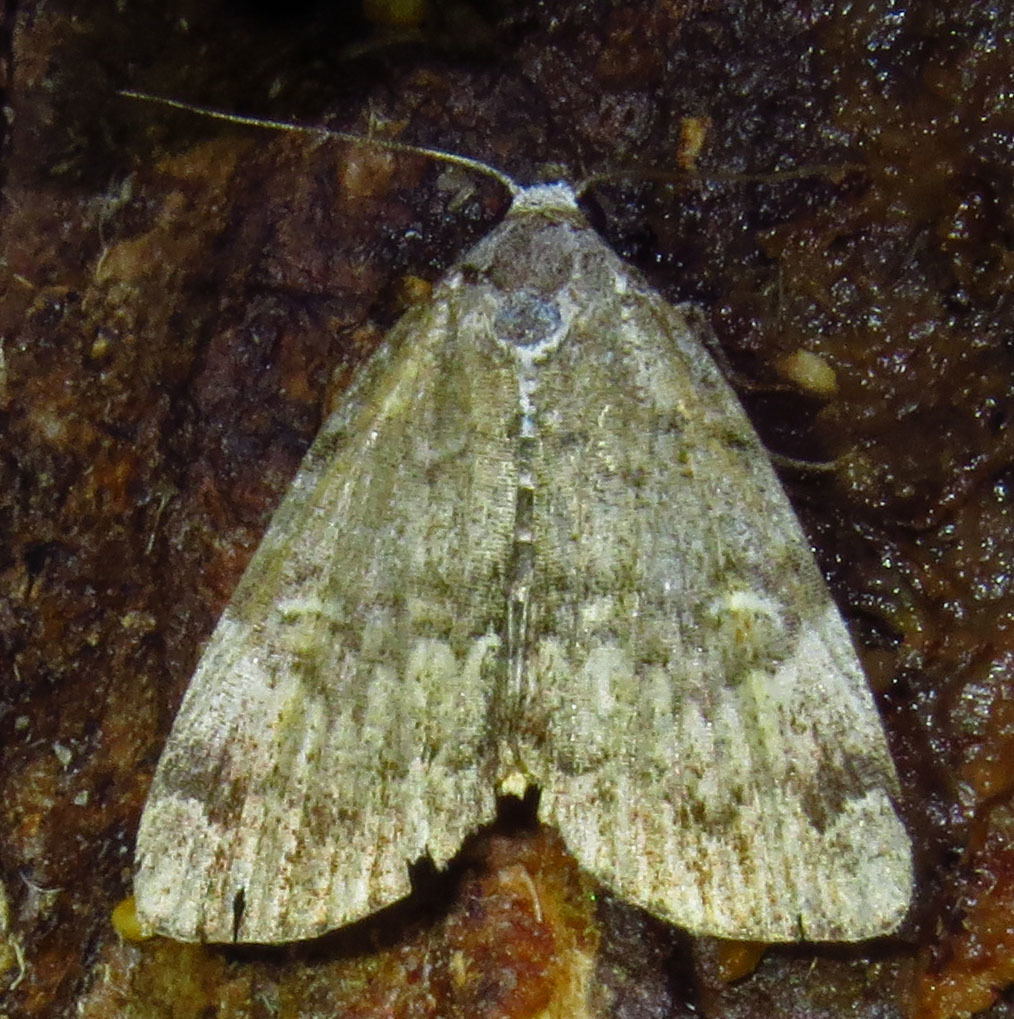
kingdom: Animalia
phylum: Arthropoda
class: Insecta
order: Lepidoptera
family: Erebidae
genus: Idia
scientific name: Idia americalis
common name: American idia moth
